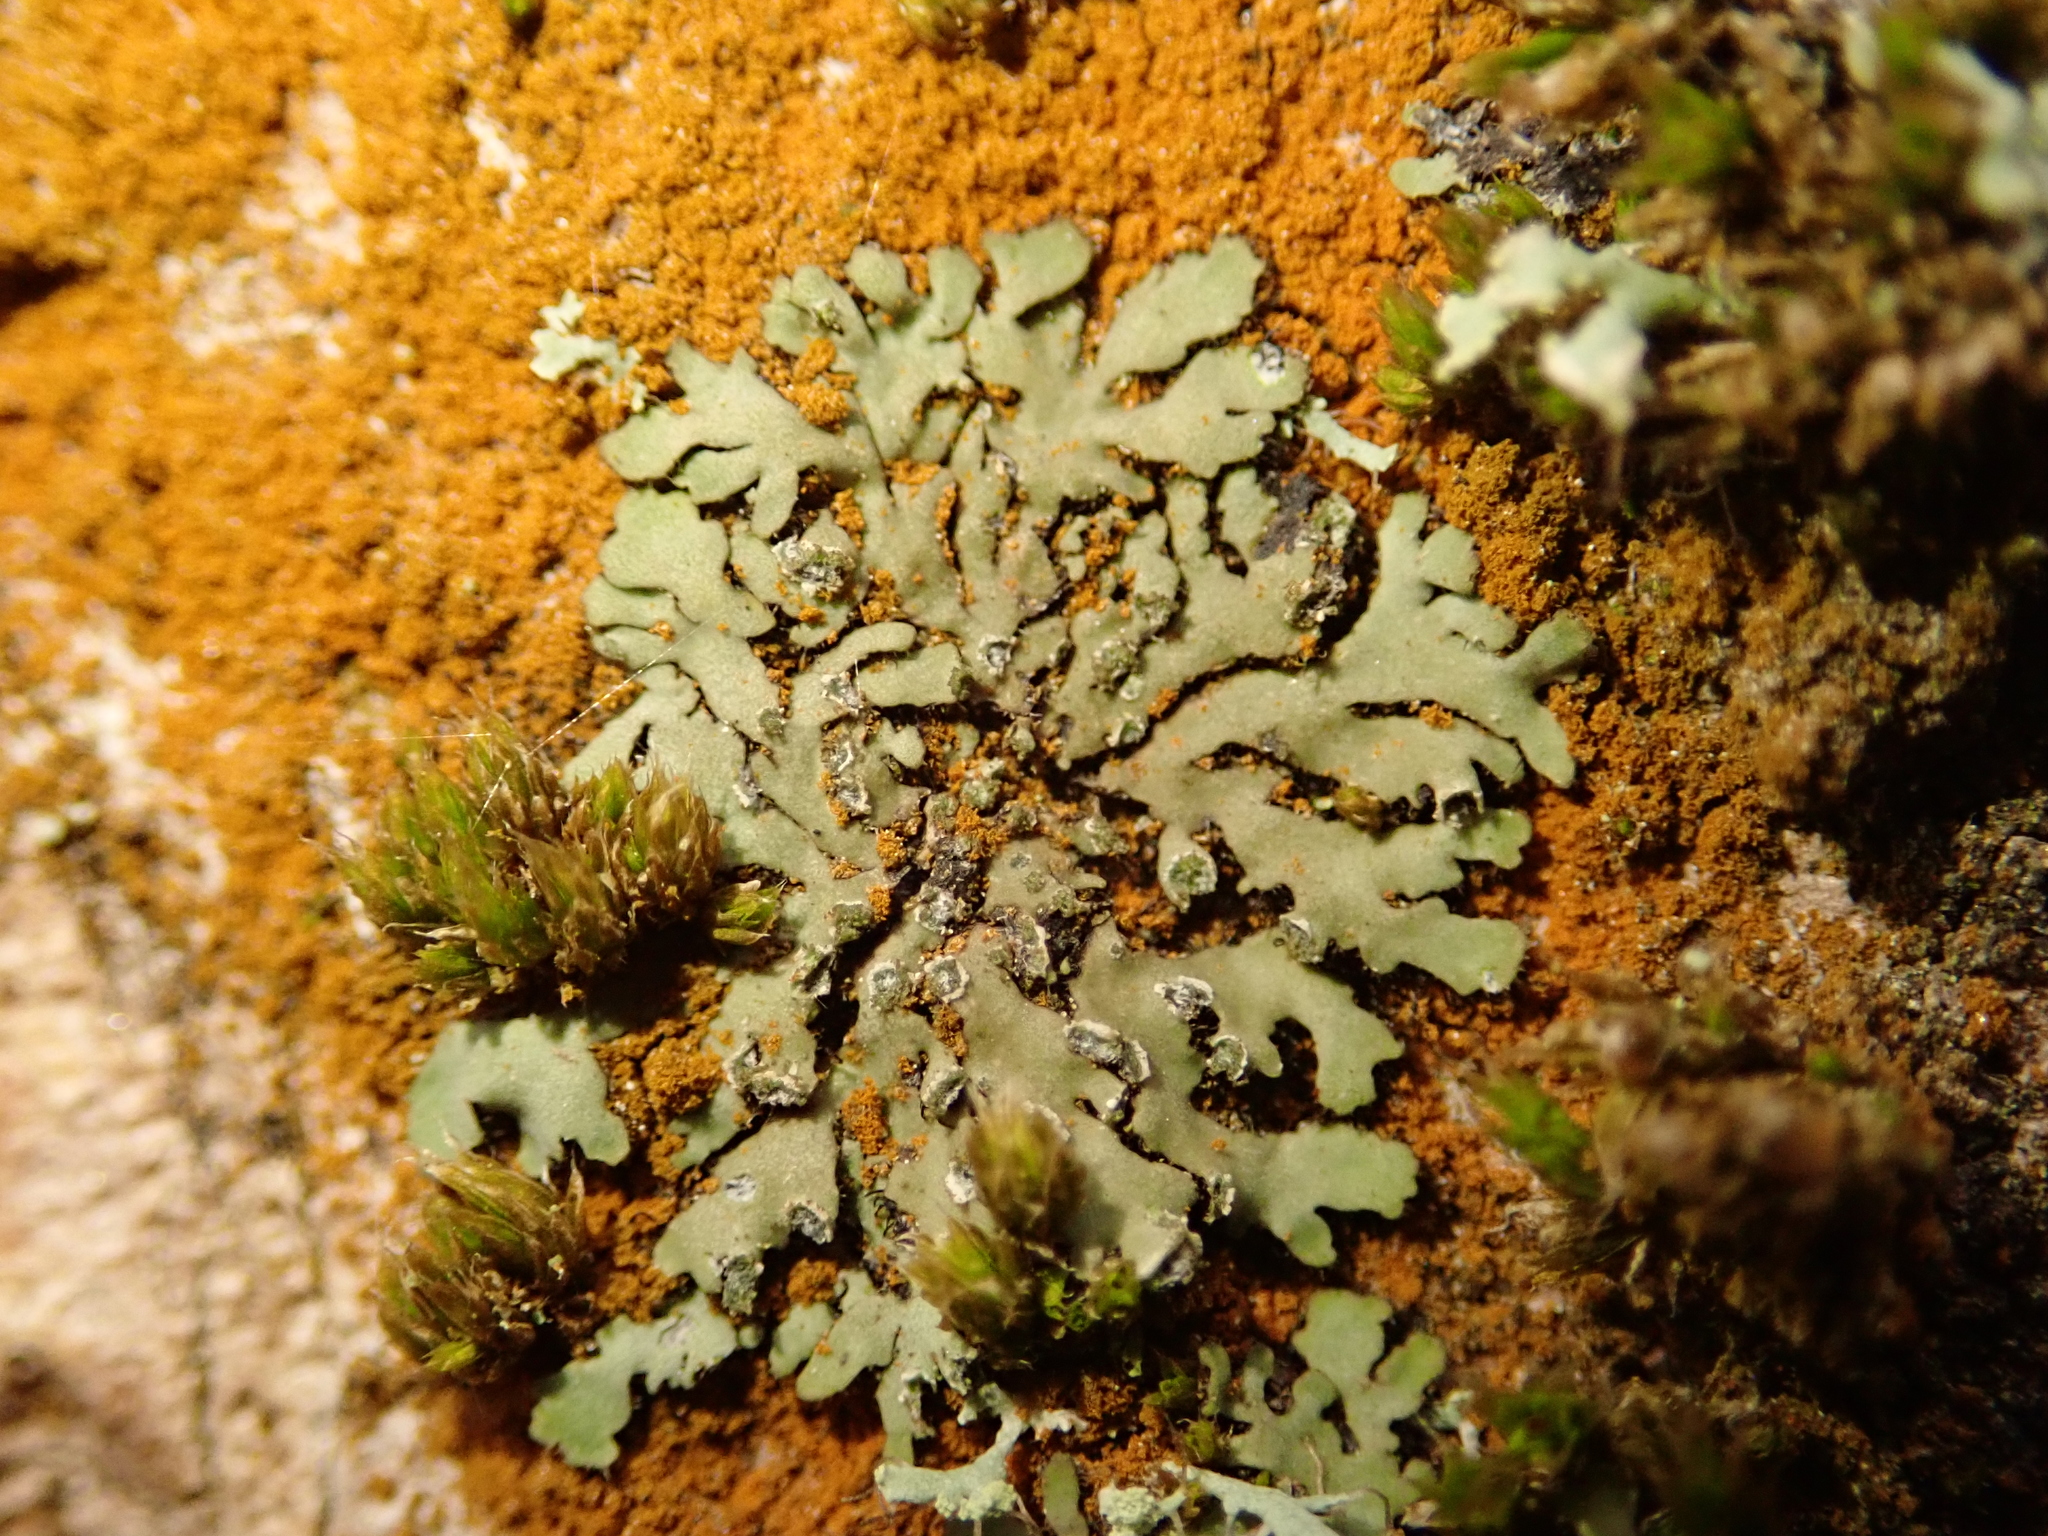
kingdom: Fungi
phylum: Ascomycota
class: Lecanoromycetes
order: Caliciales
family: Physciaceae
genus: Phaeophyscia
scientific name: Phaeophyscia orbicularis
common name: Mealy shadow lichen
